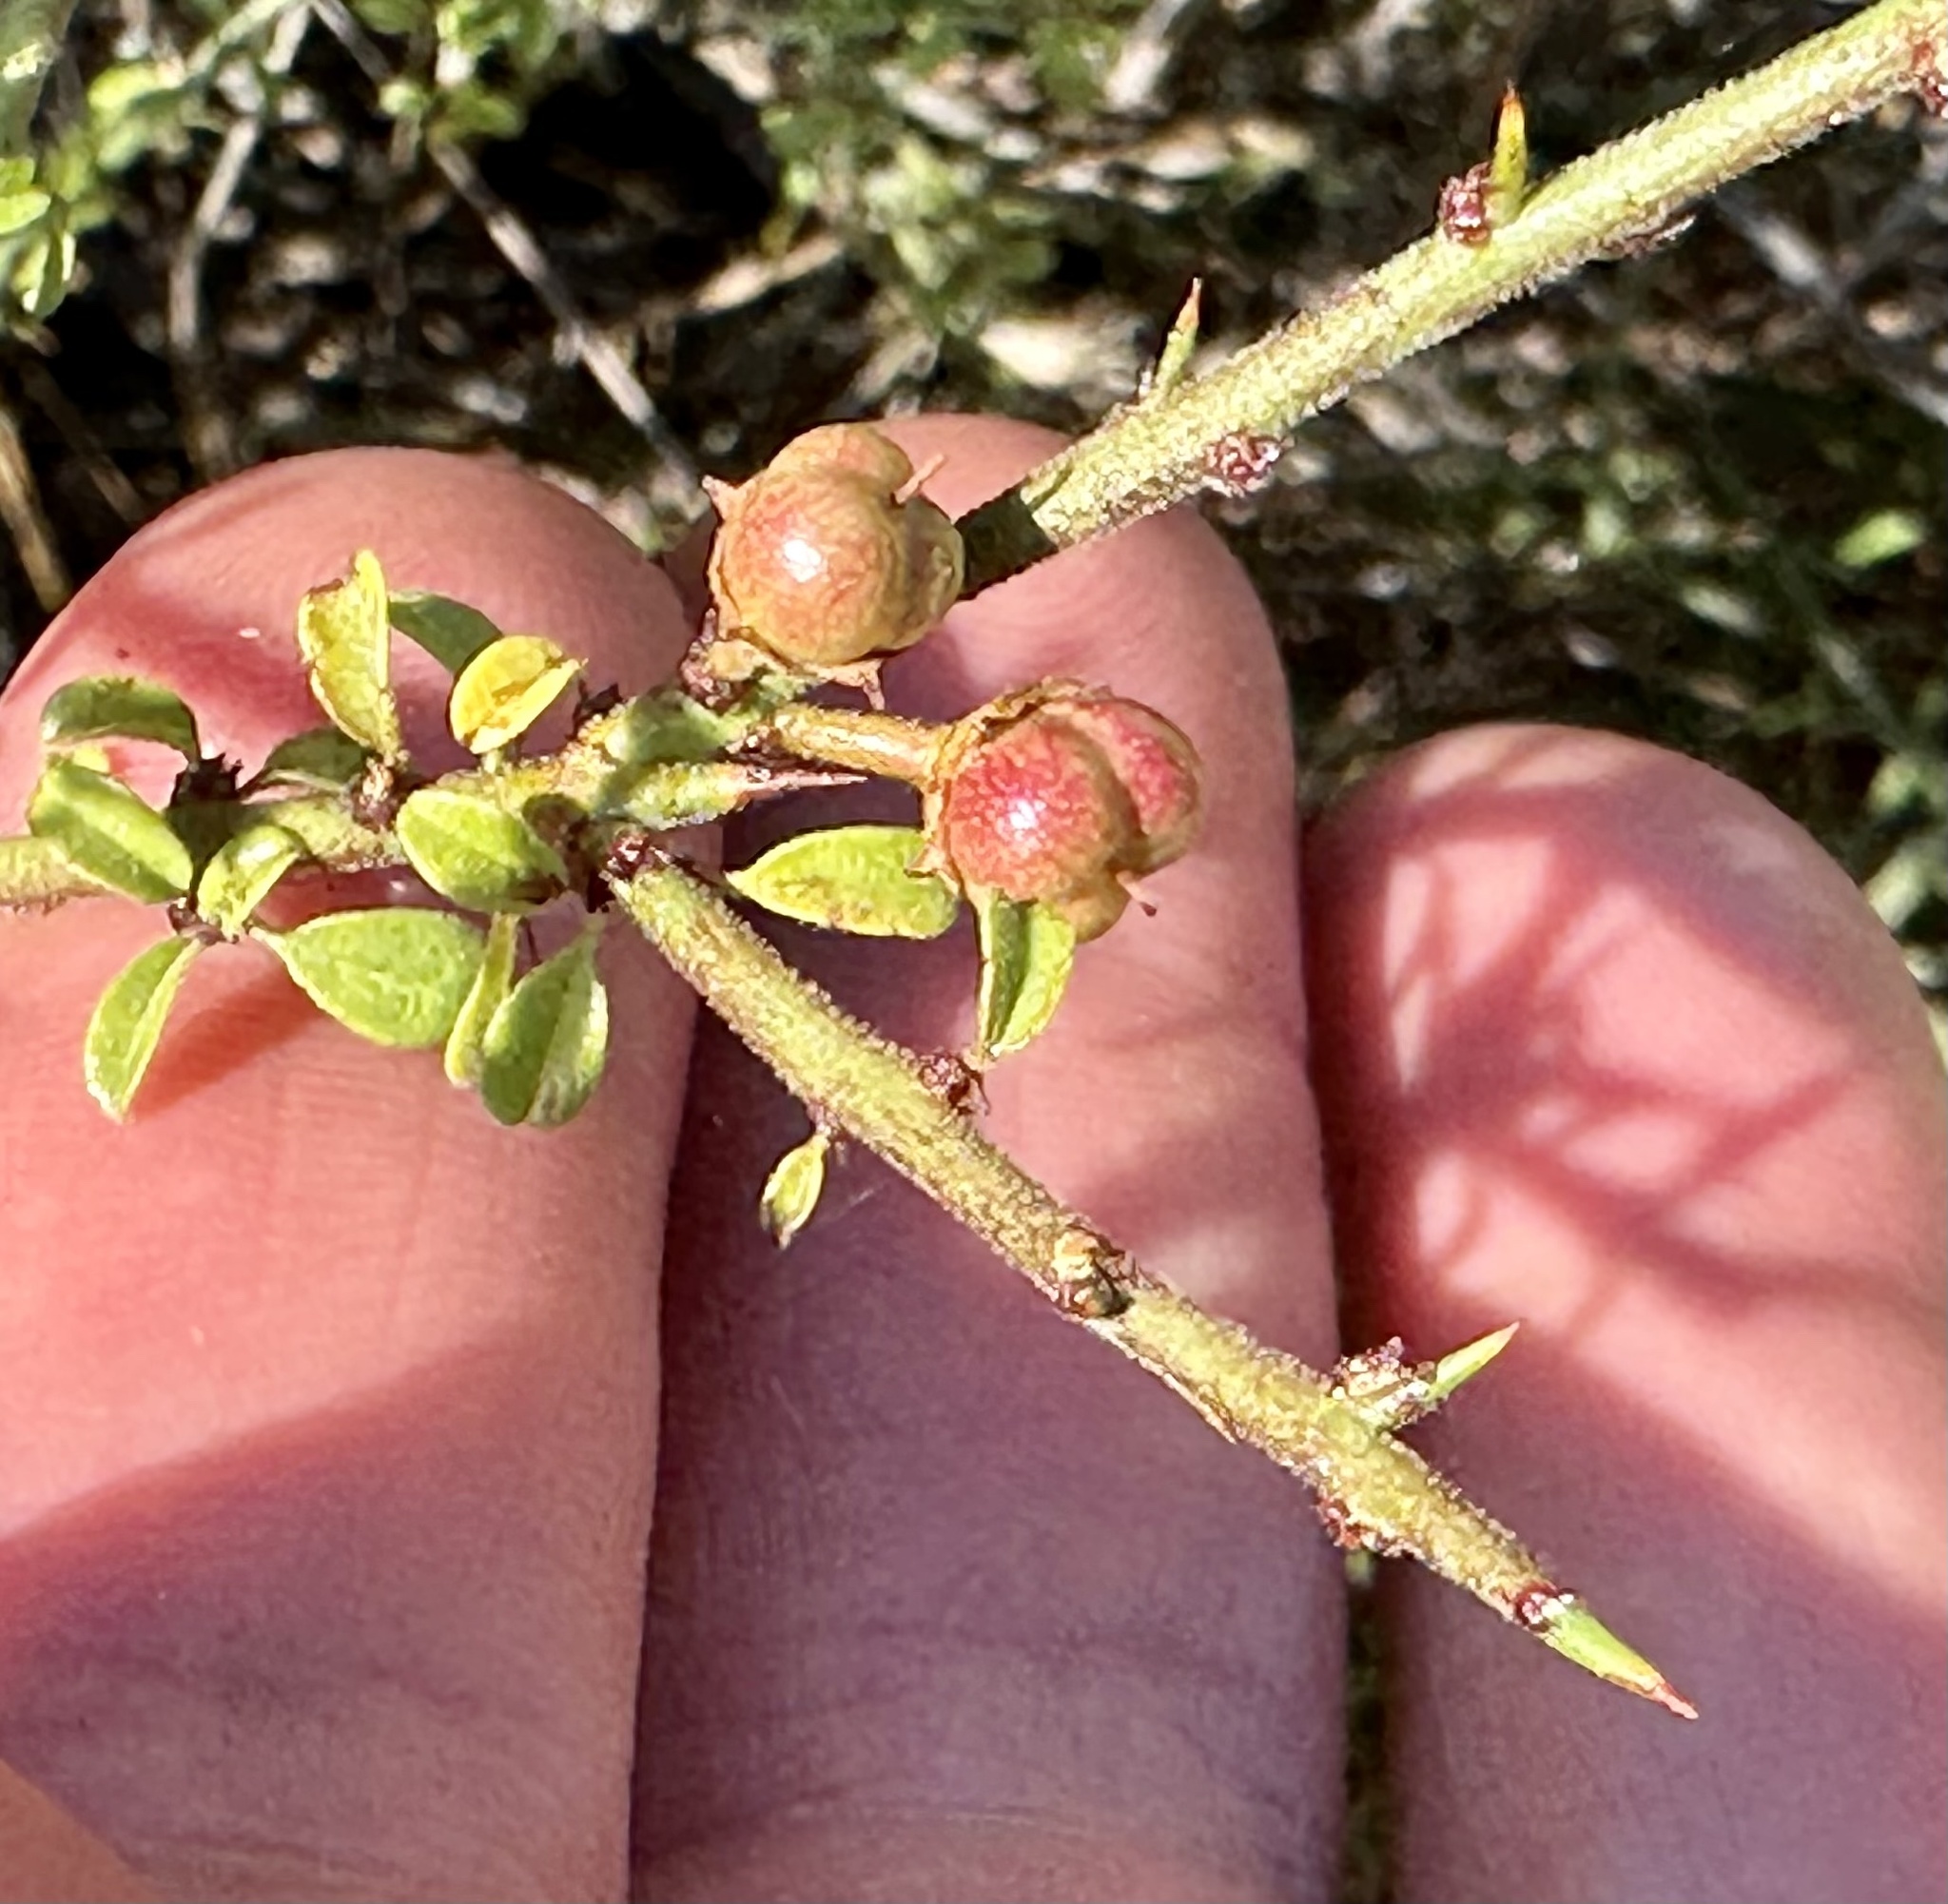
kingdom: Plantae
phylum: Tracheophyta
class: Magnoliopsida
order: Rosales
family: Rhamnaceae
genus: Adolphia
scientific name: Adolphia californica
